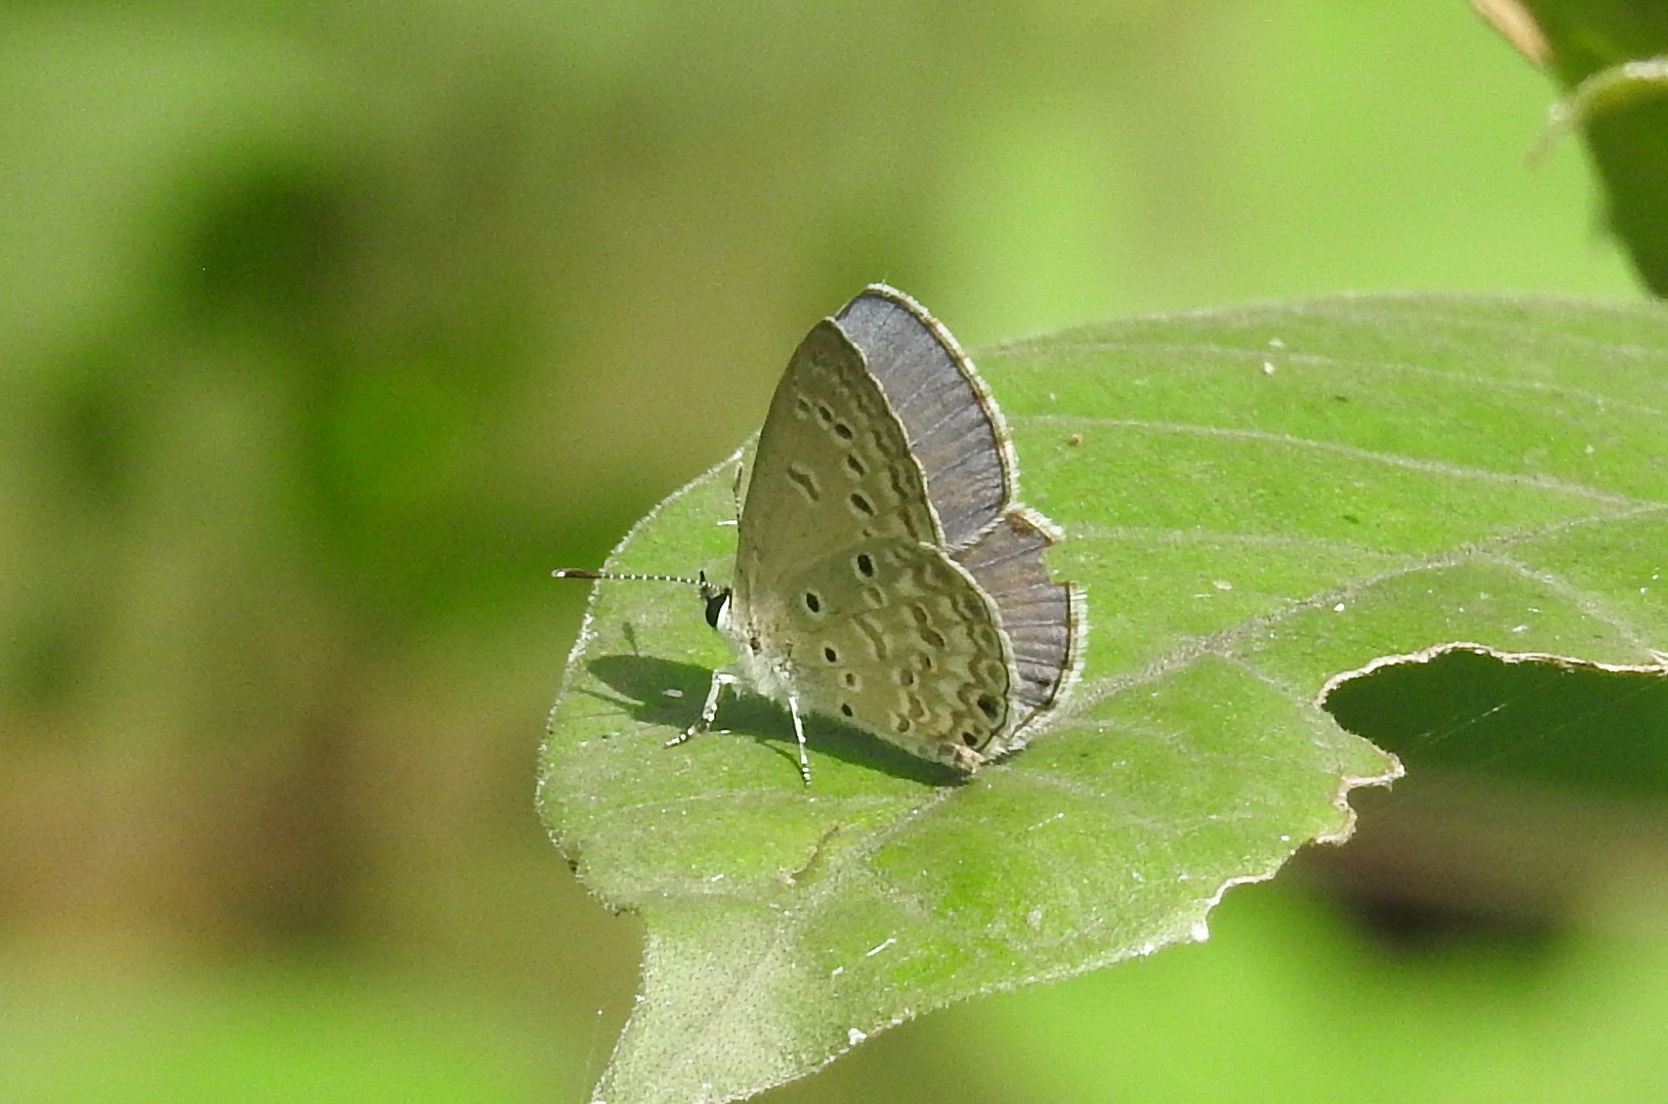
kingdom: Animalia
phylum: Arthropoda
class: Insecta
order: Lepidoptera
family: Lycaenidae
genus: Chilades
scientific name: Chilades laius
